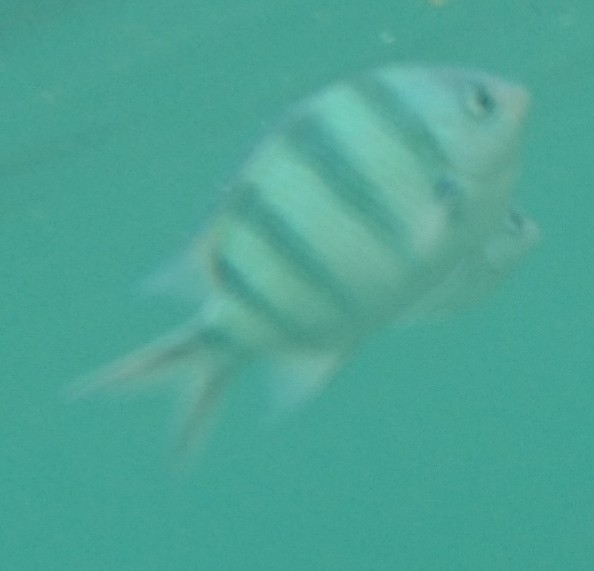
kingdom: Animalia
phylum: Chordata
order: Perciformes
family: Pomacentridae
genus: Abudefduf
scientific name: Abudefduf sexfasciatus
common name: Scissortail sergeant
